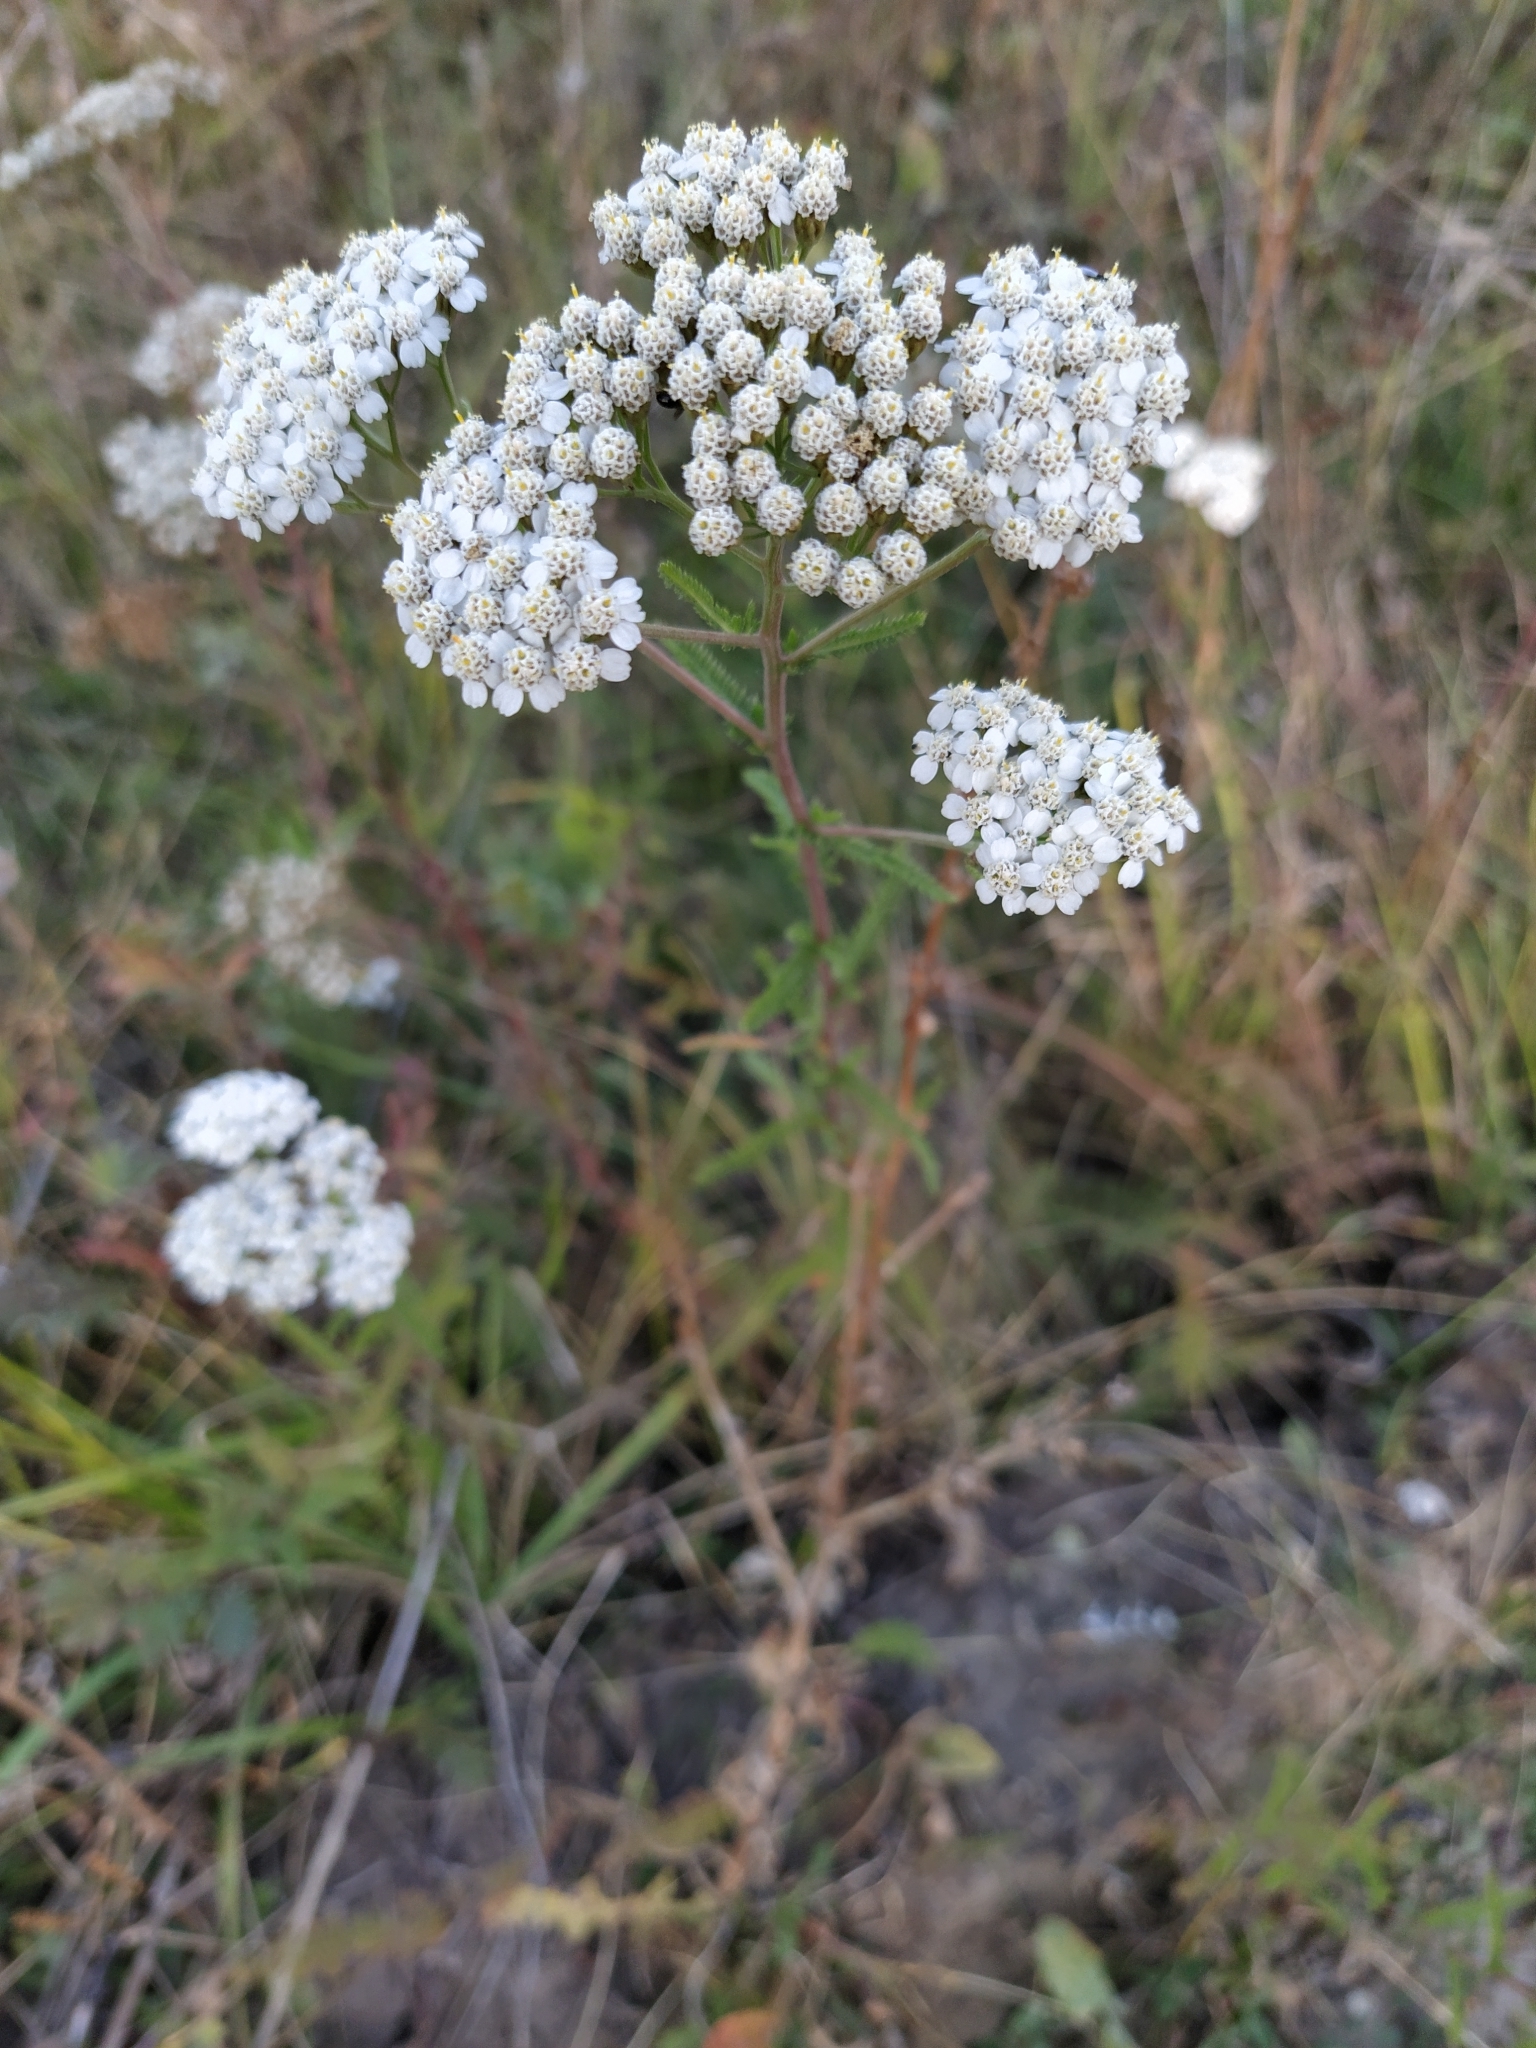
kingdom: Plantae
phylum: Tracheophyta
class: Magnoliopsida
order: Asterales
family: Asteraceae
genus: Achillea
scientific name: Achillea millefolium
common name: Yarrow
